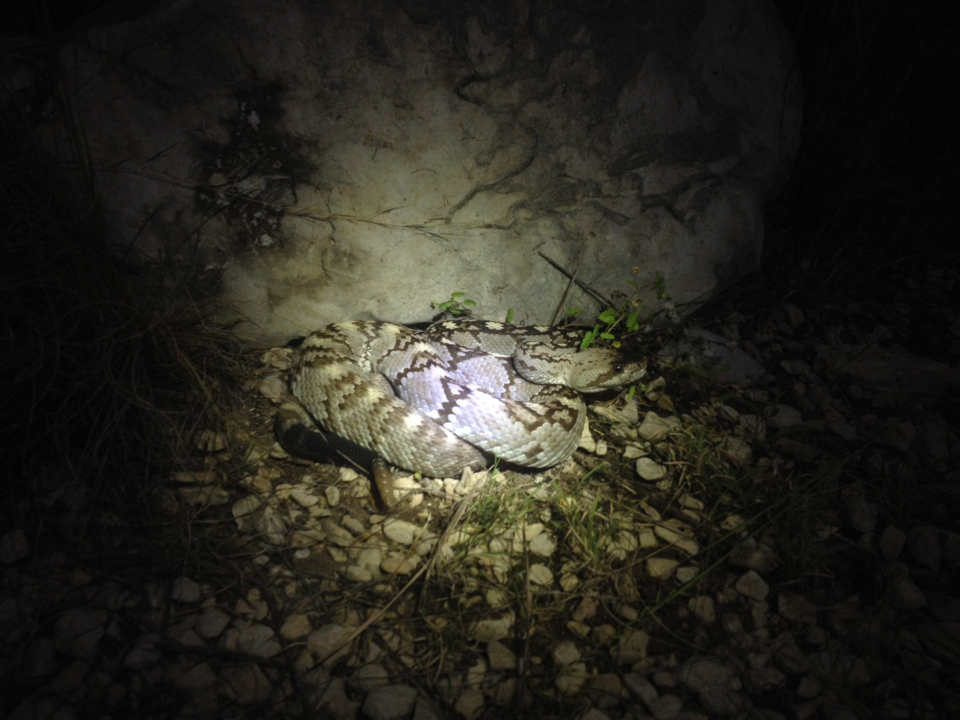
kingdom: Animalia
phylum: Chordata
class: Squamata
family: Viperidae
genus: Crotalus
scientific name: Crotalus ornatus
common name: Black-tailed rattlesnake
